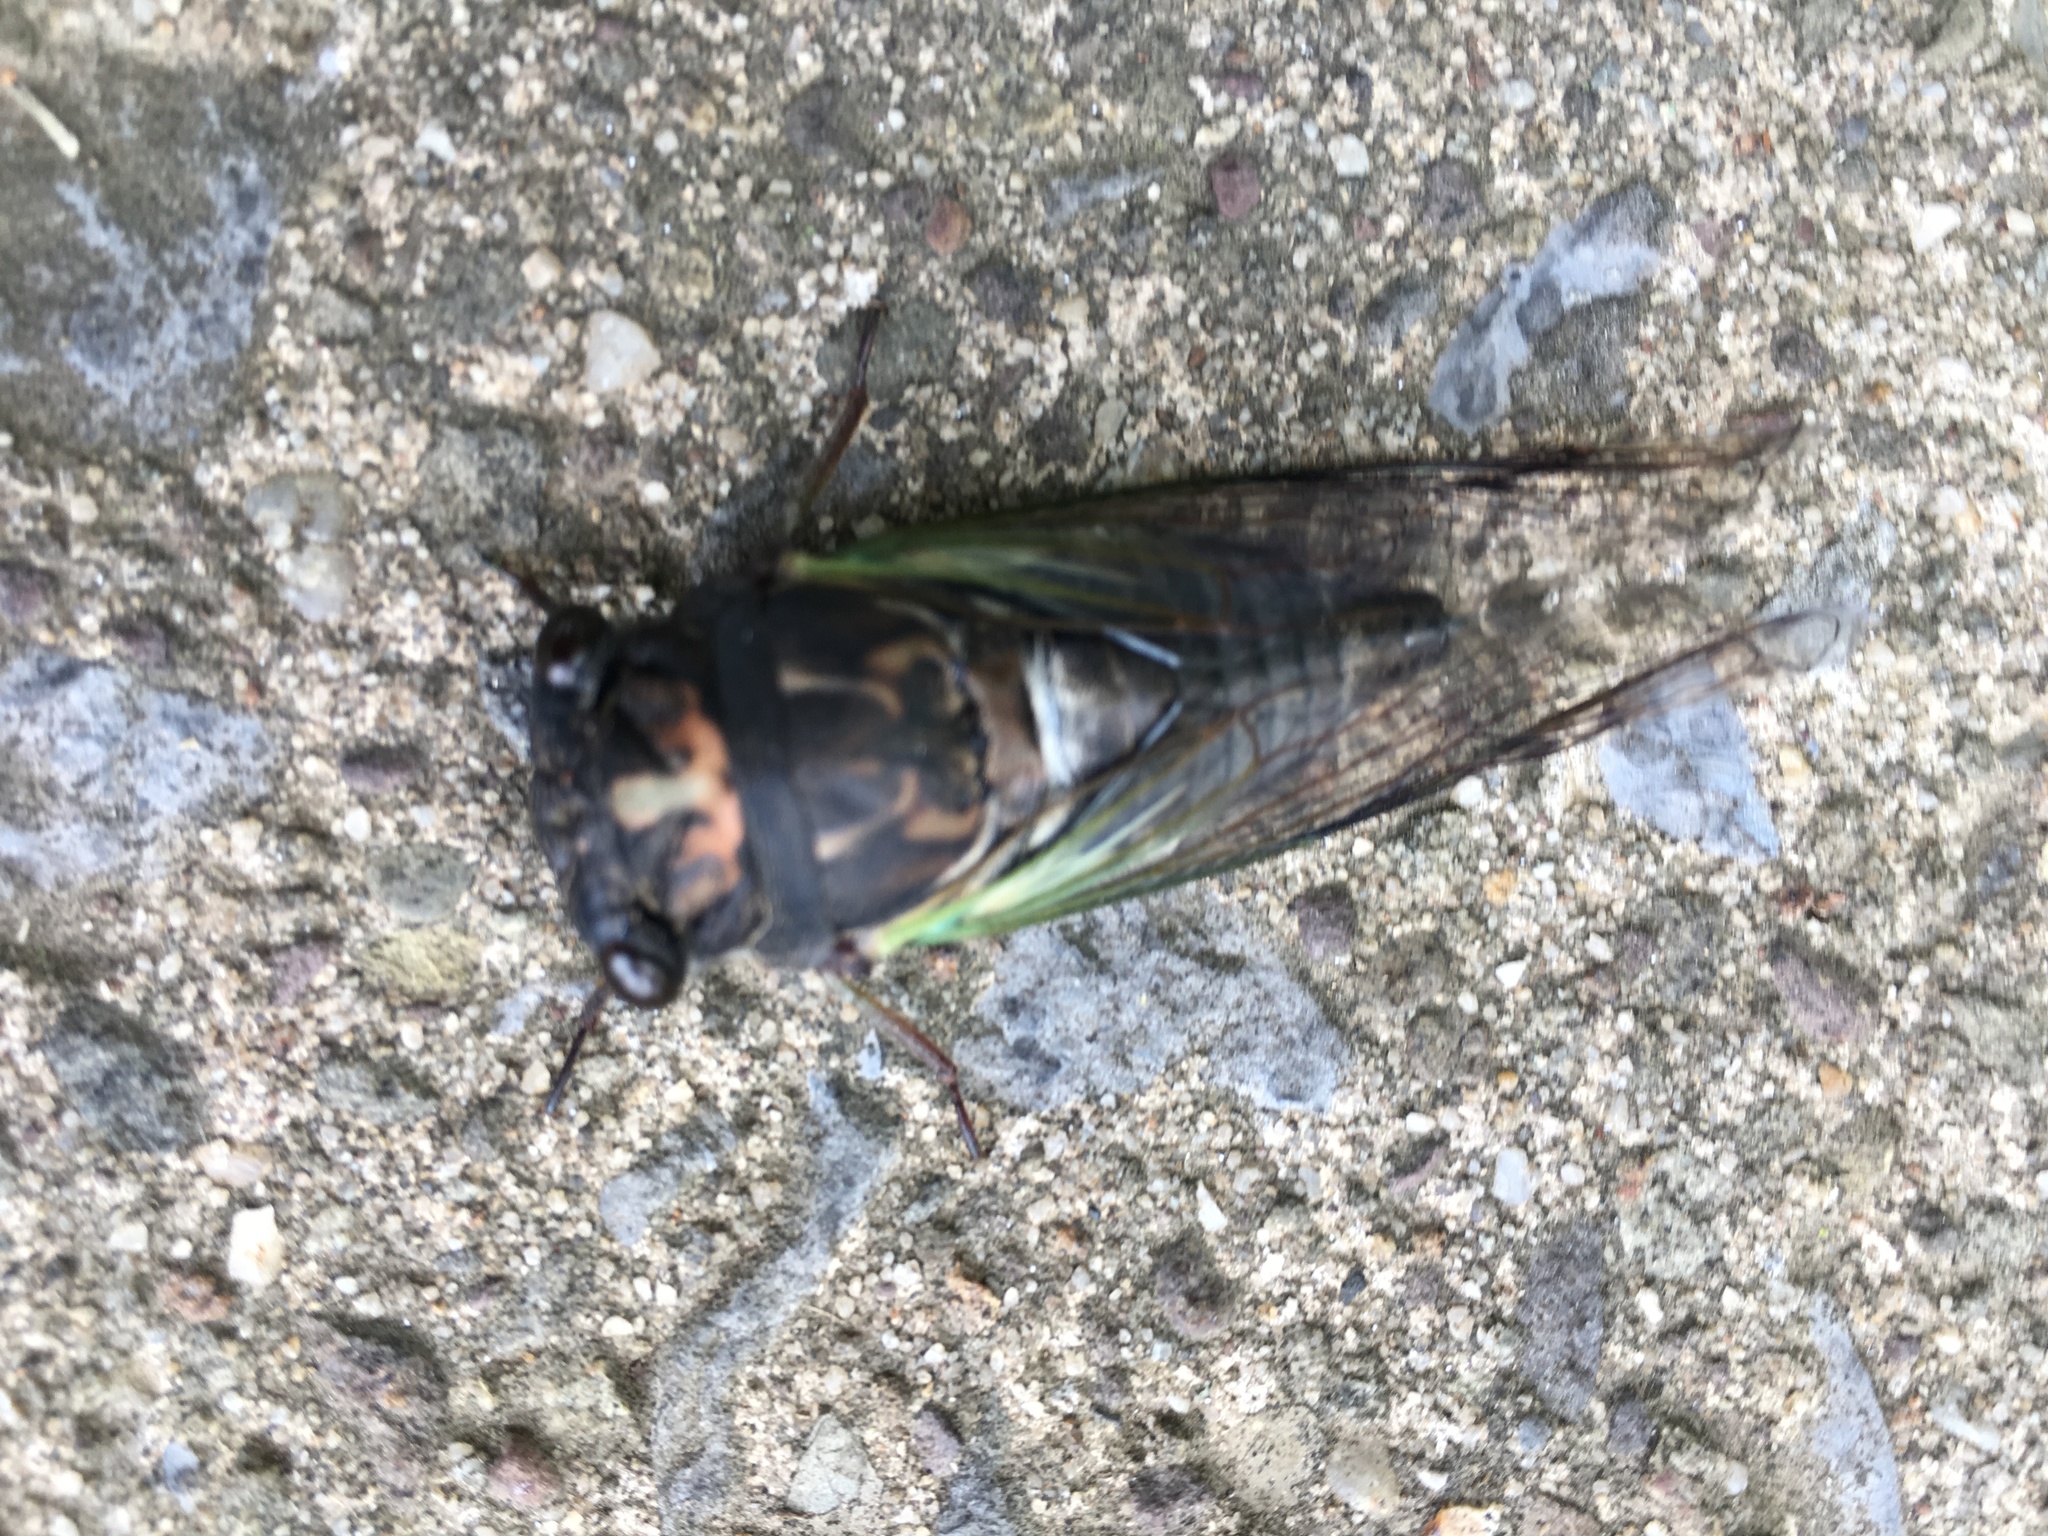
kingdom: Animalia
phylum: Arthropoda
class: Insecta
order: Hemiptera
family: Cicadidae
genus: Neotibicen
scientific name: Neotibicen lyricen
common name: Lyric cicada
